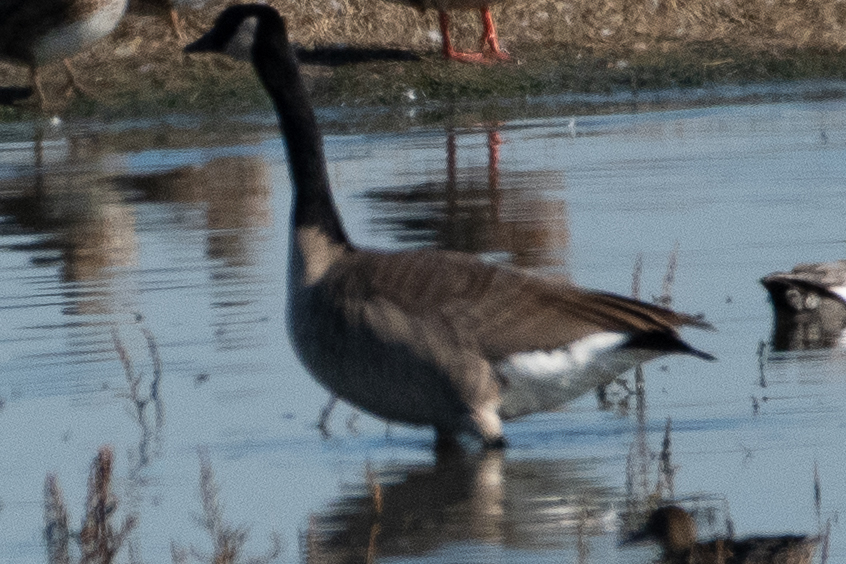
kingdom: Animalia
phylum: Chordata
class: Aves
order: Anseriformes
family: Anatidae
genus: Branta
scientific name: Branta canadensis
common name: Canada goose
